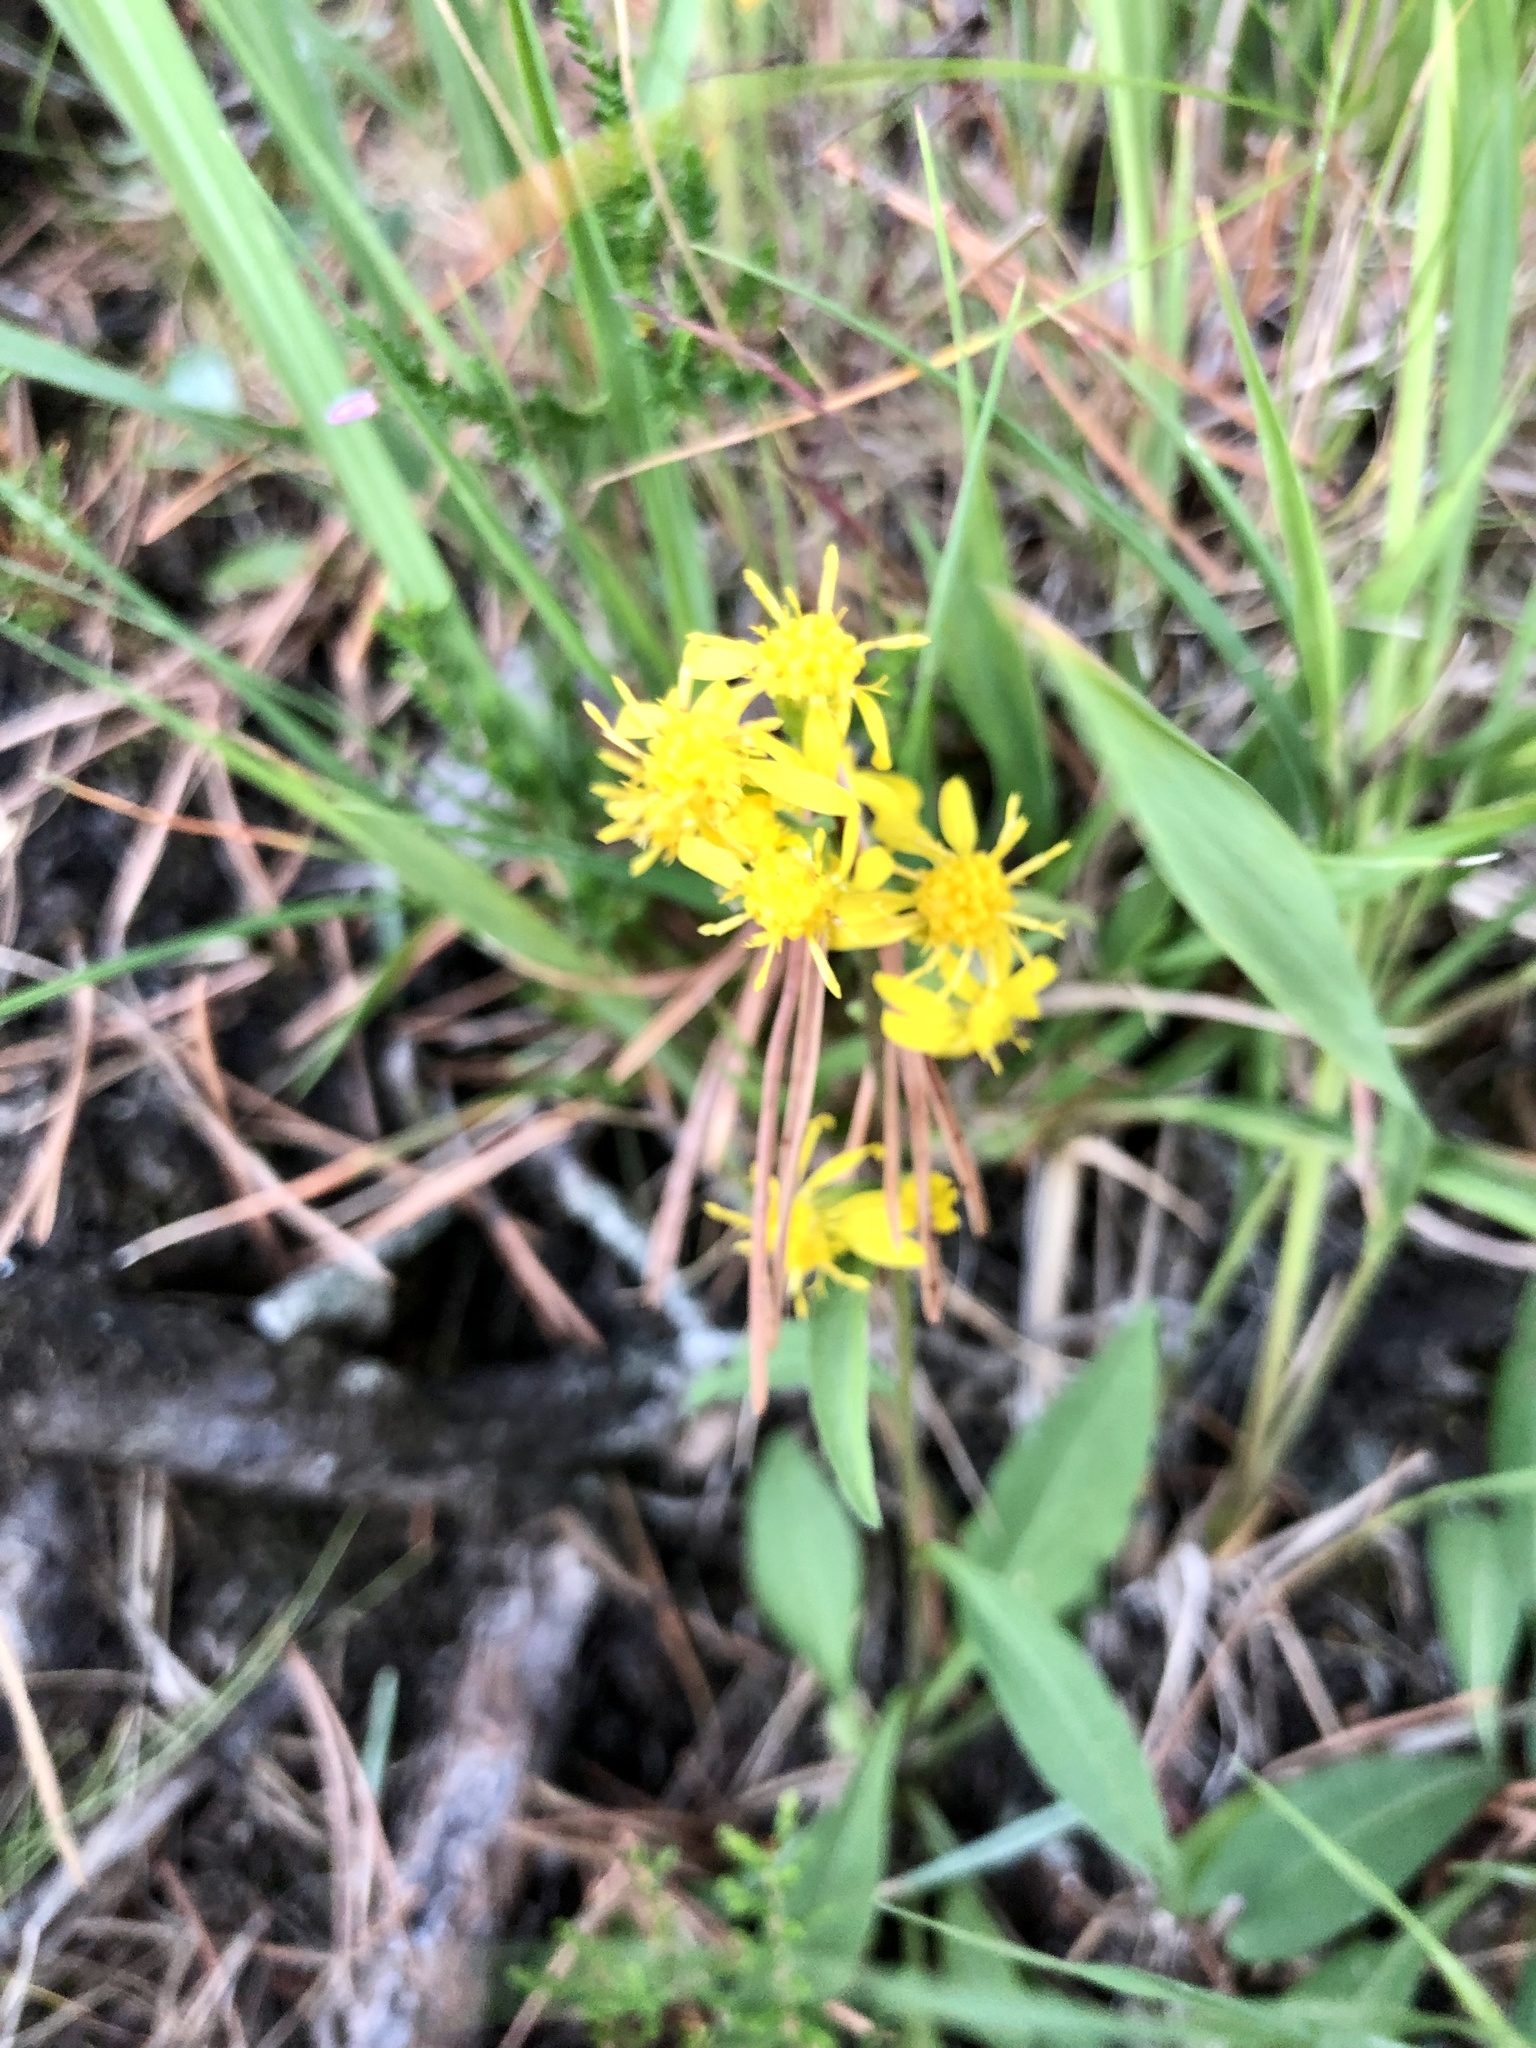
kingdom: Plantae
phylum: Tracheophyta
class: Magnoliopsida
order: Asterales
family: Asteraceae
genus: Solidago
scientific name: Solidago virgaurea
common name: Goldenrod
